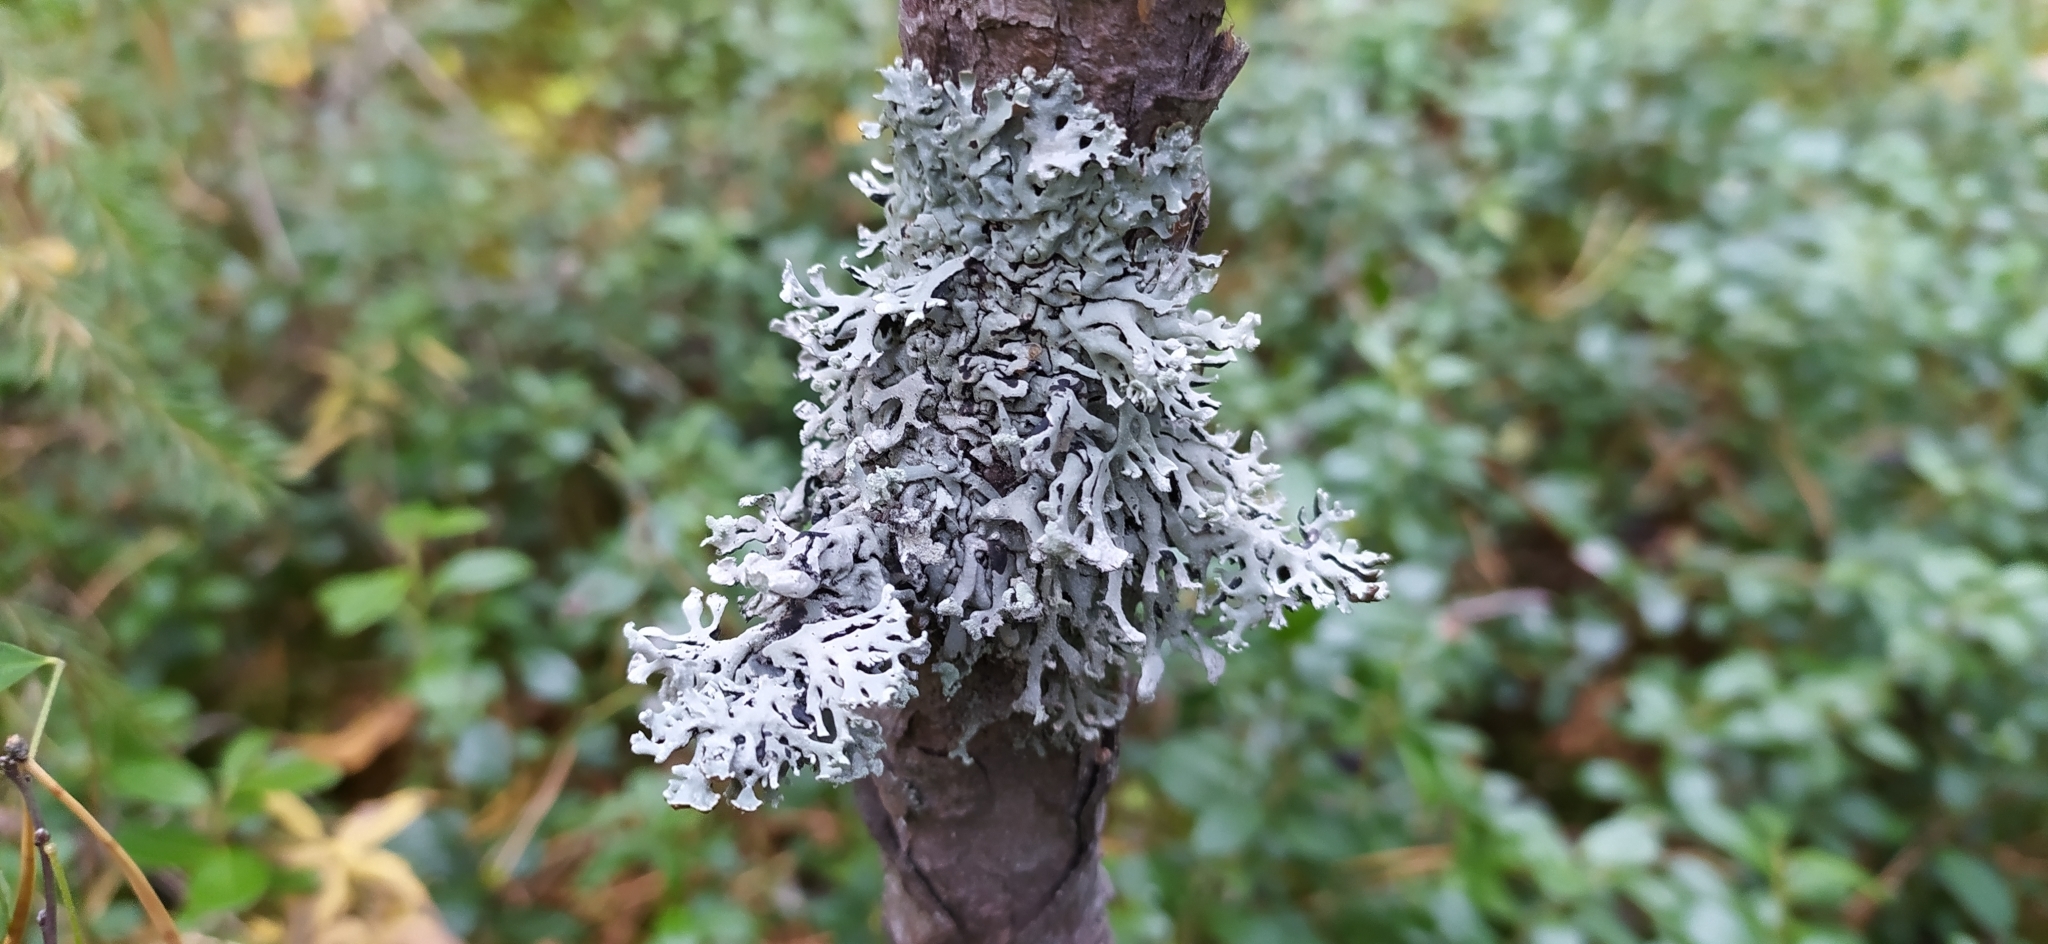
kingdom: Fungi
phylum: Ascomycota
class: Lecanoromycetes
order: Lecanorales
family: Parmeliaceae
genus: Hypogymnia
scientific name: Hypogymnia physodes
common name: Dark crottle
